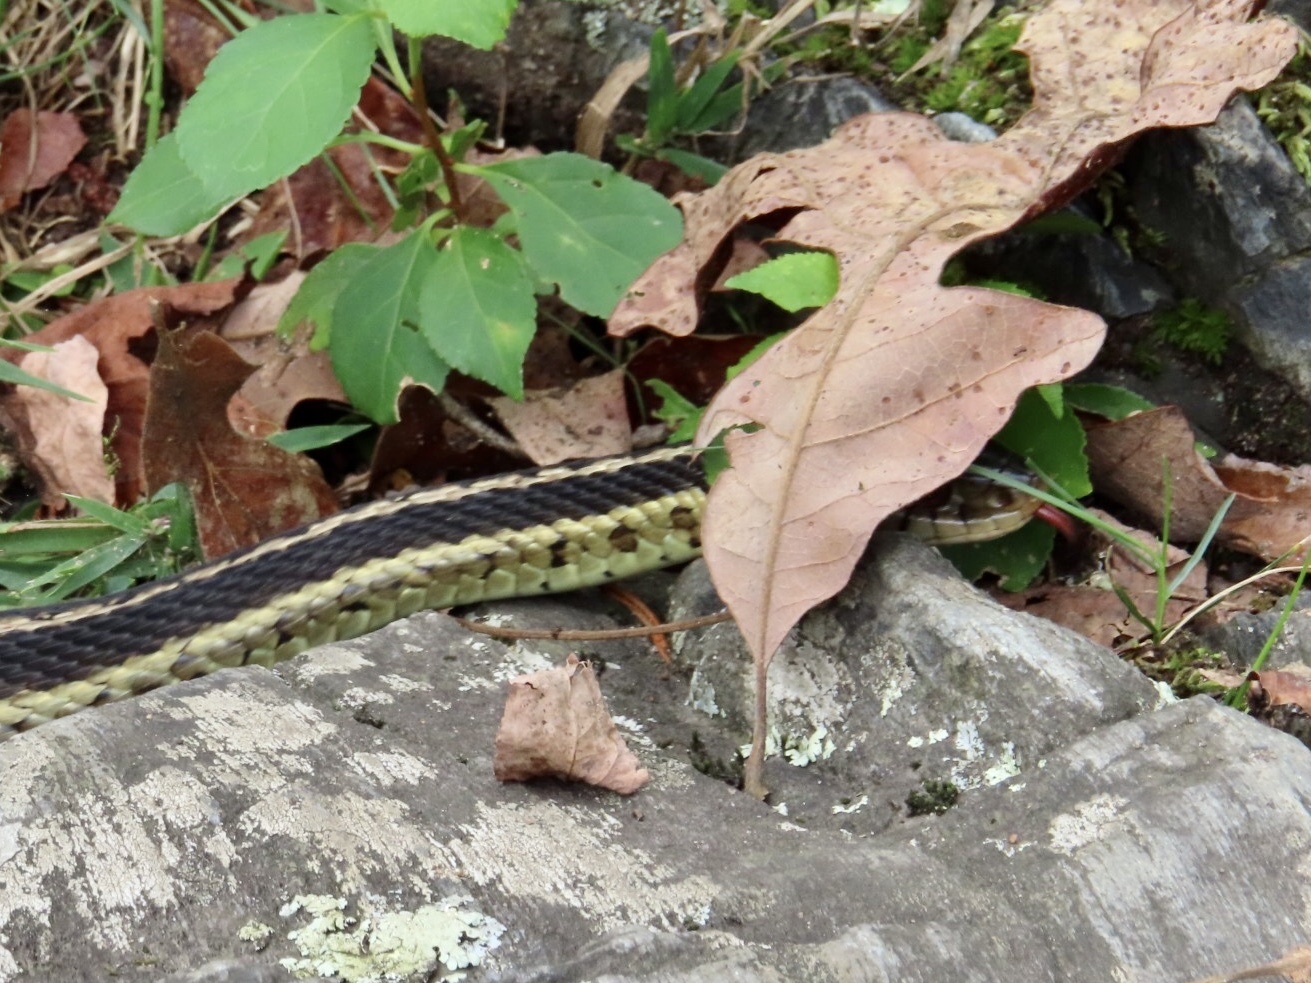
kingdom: Animalia
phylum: Chordata
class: Squamata
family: Colubridae
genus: Thamnophis
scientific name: Thamnophis sirtalis
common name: Common garter snake
